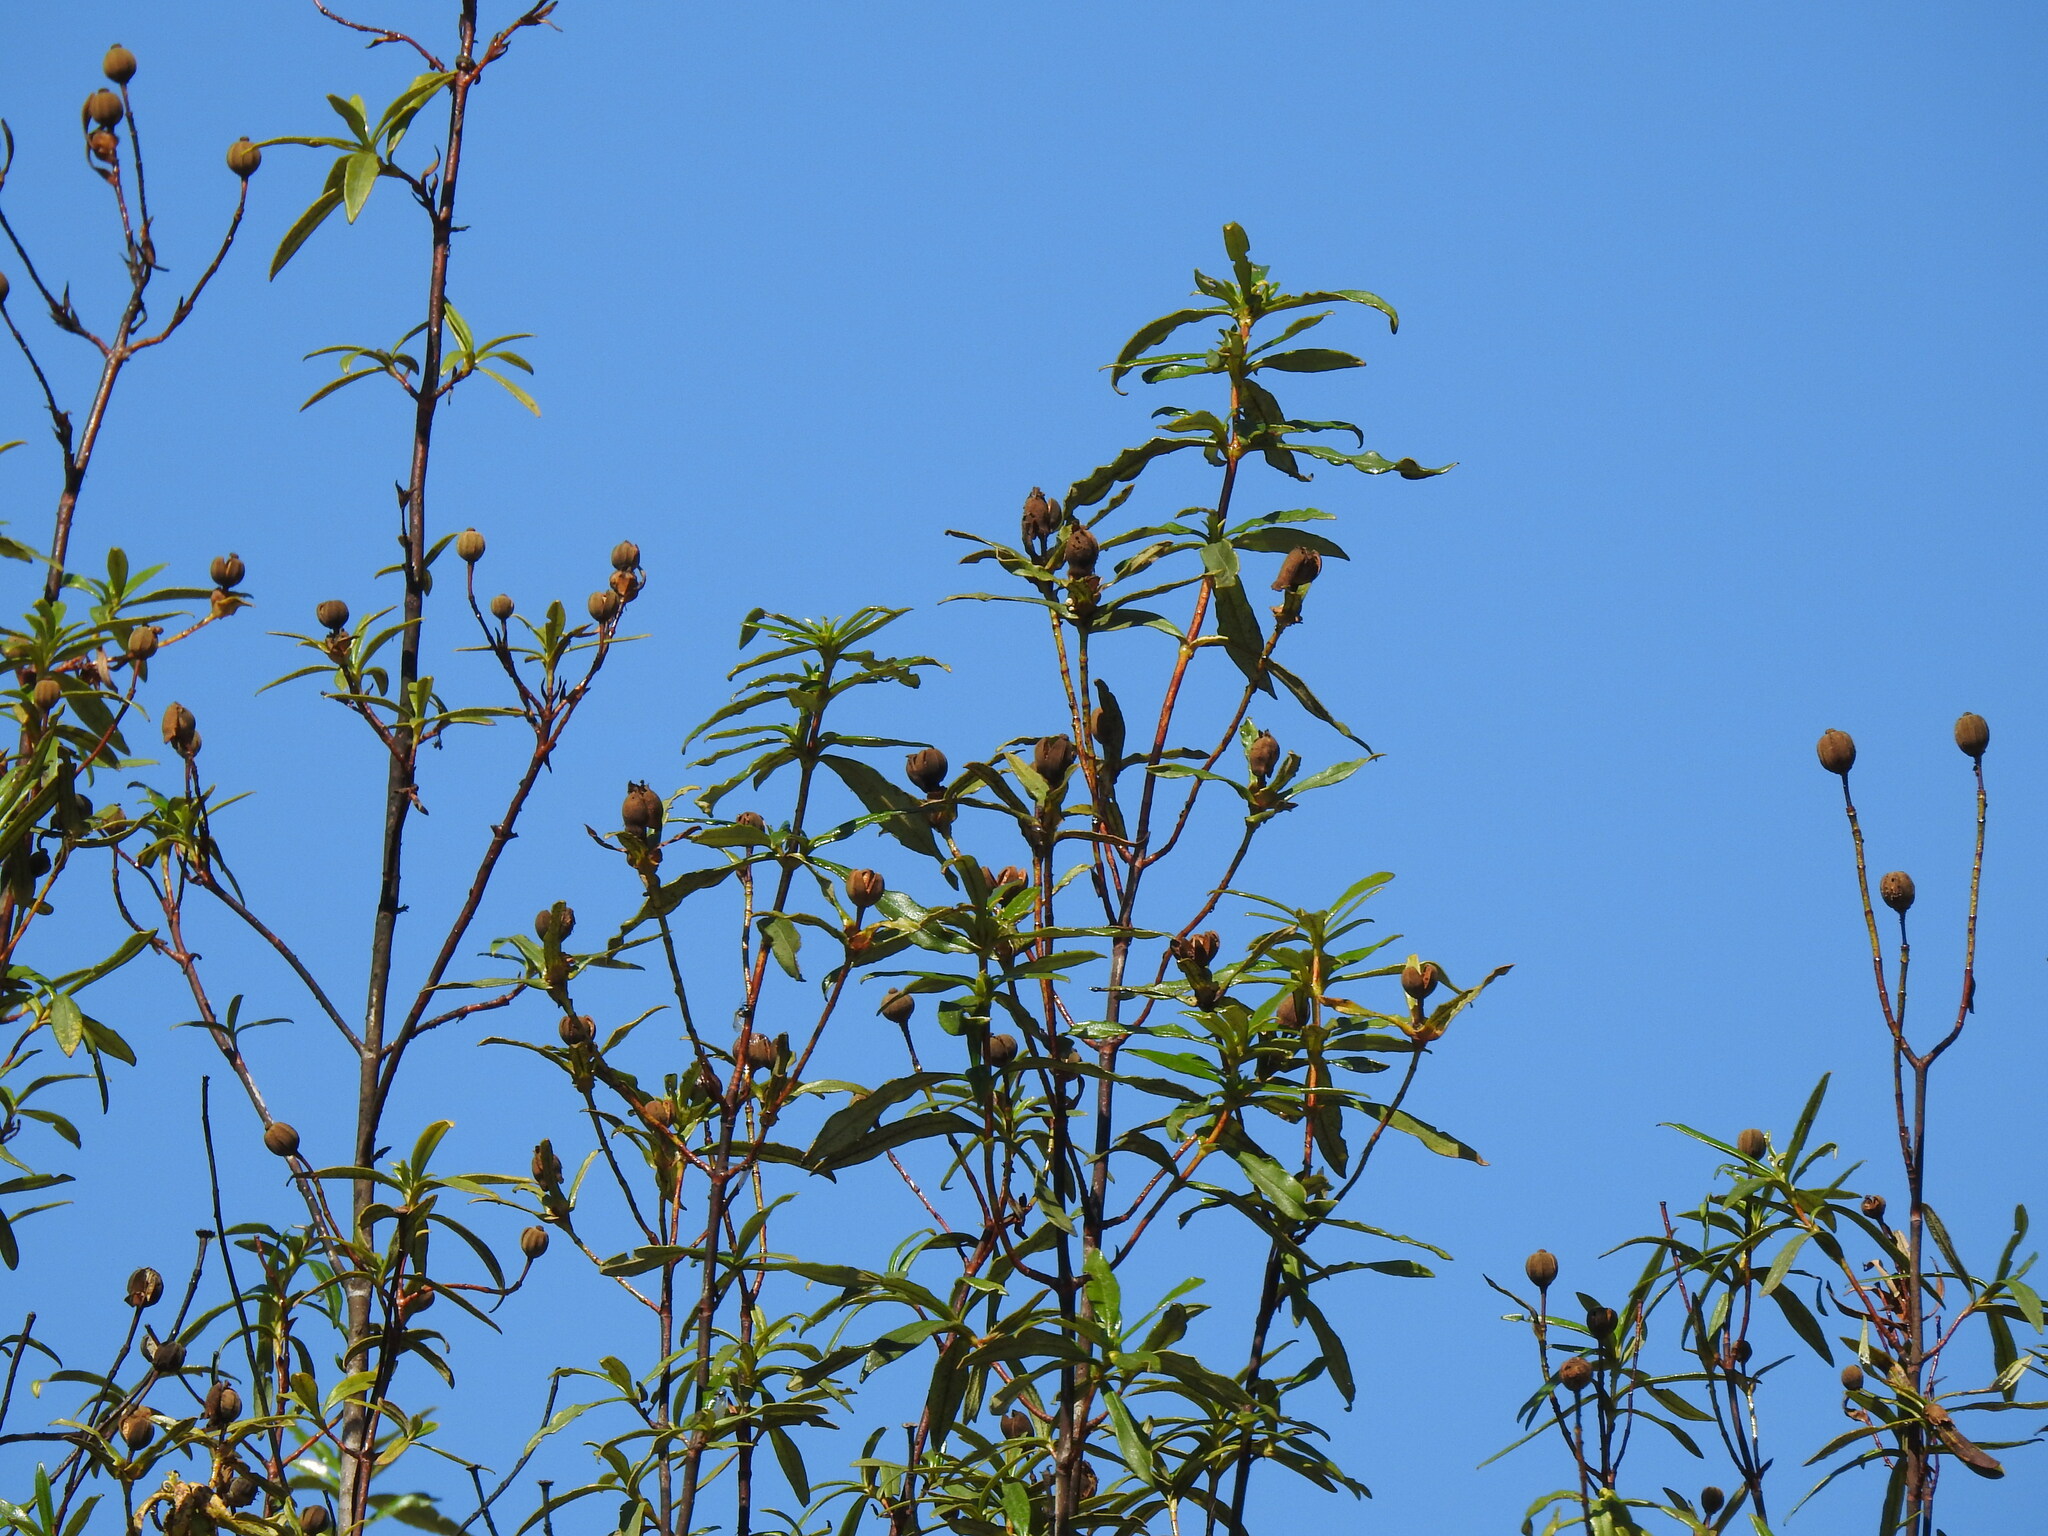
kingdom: Plantae
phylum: Tracheophyta
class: Magnoliopsida
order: Malvales
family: Cistaceae
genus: Cistus
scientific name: Cistus ladanifer
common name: Common gum cistus
